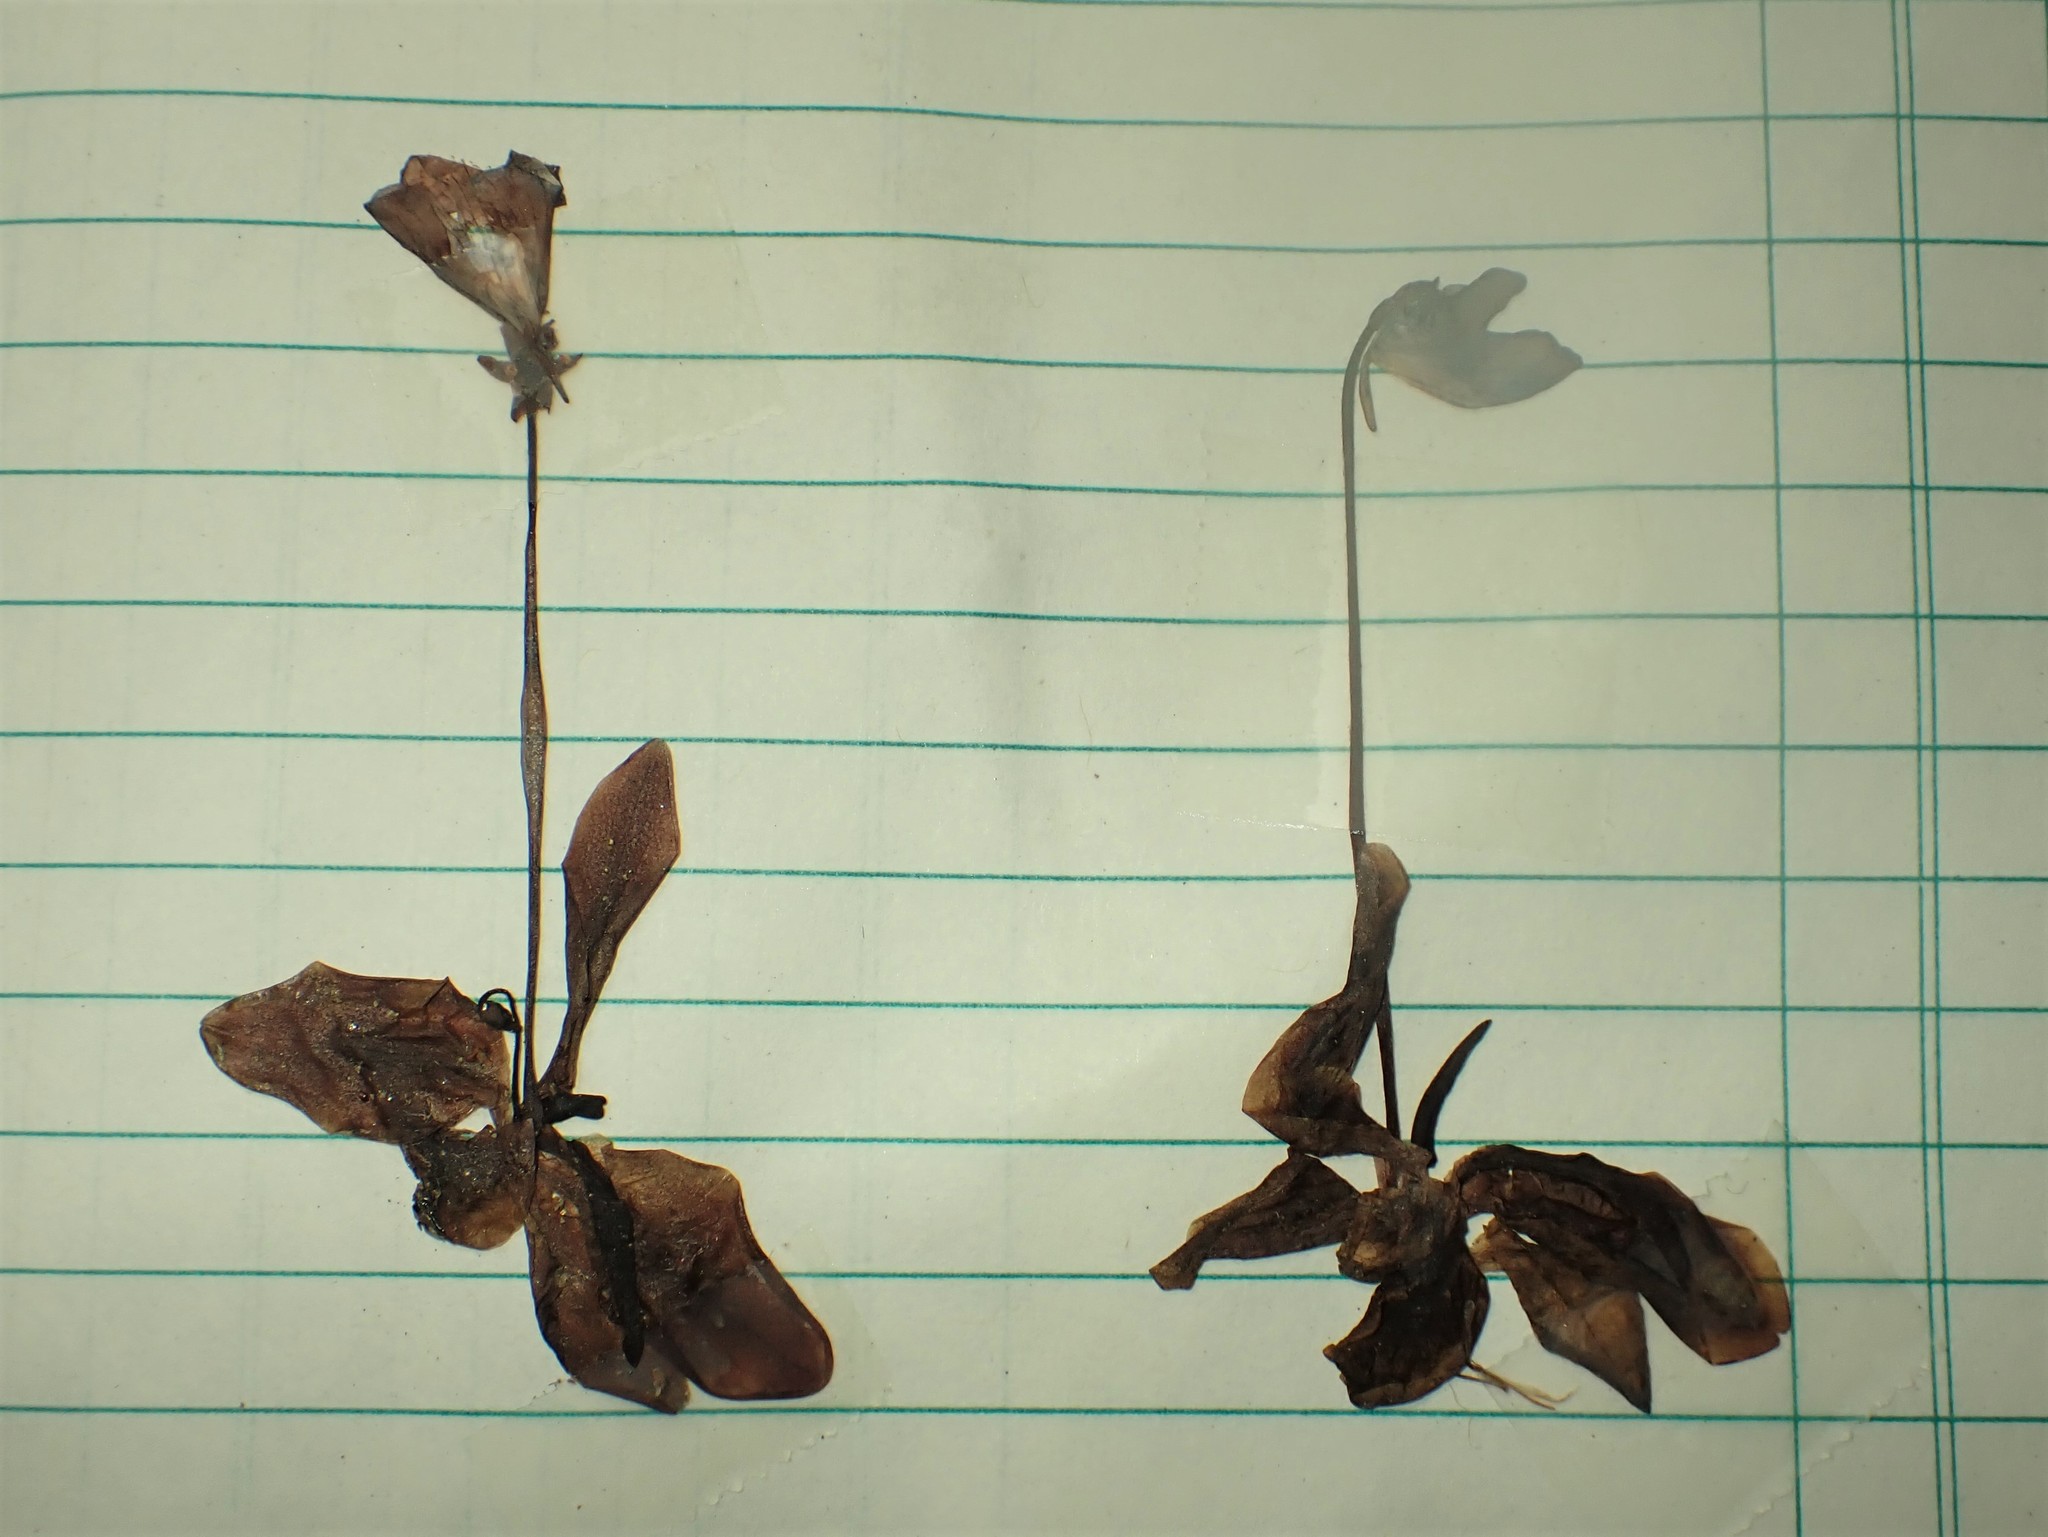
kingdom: Plantae
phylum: Tracheophyta
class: Magnoliopsida
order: Lamiales
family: Lentibulariaceae
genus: Pinguicula
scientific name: Pinguicula vulgaris
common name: Common butterwort
